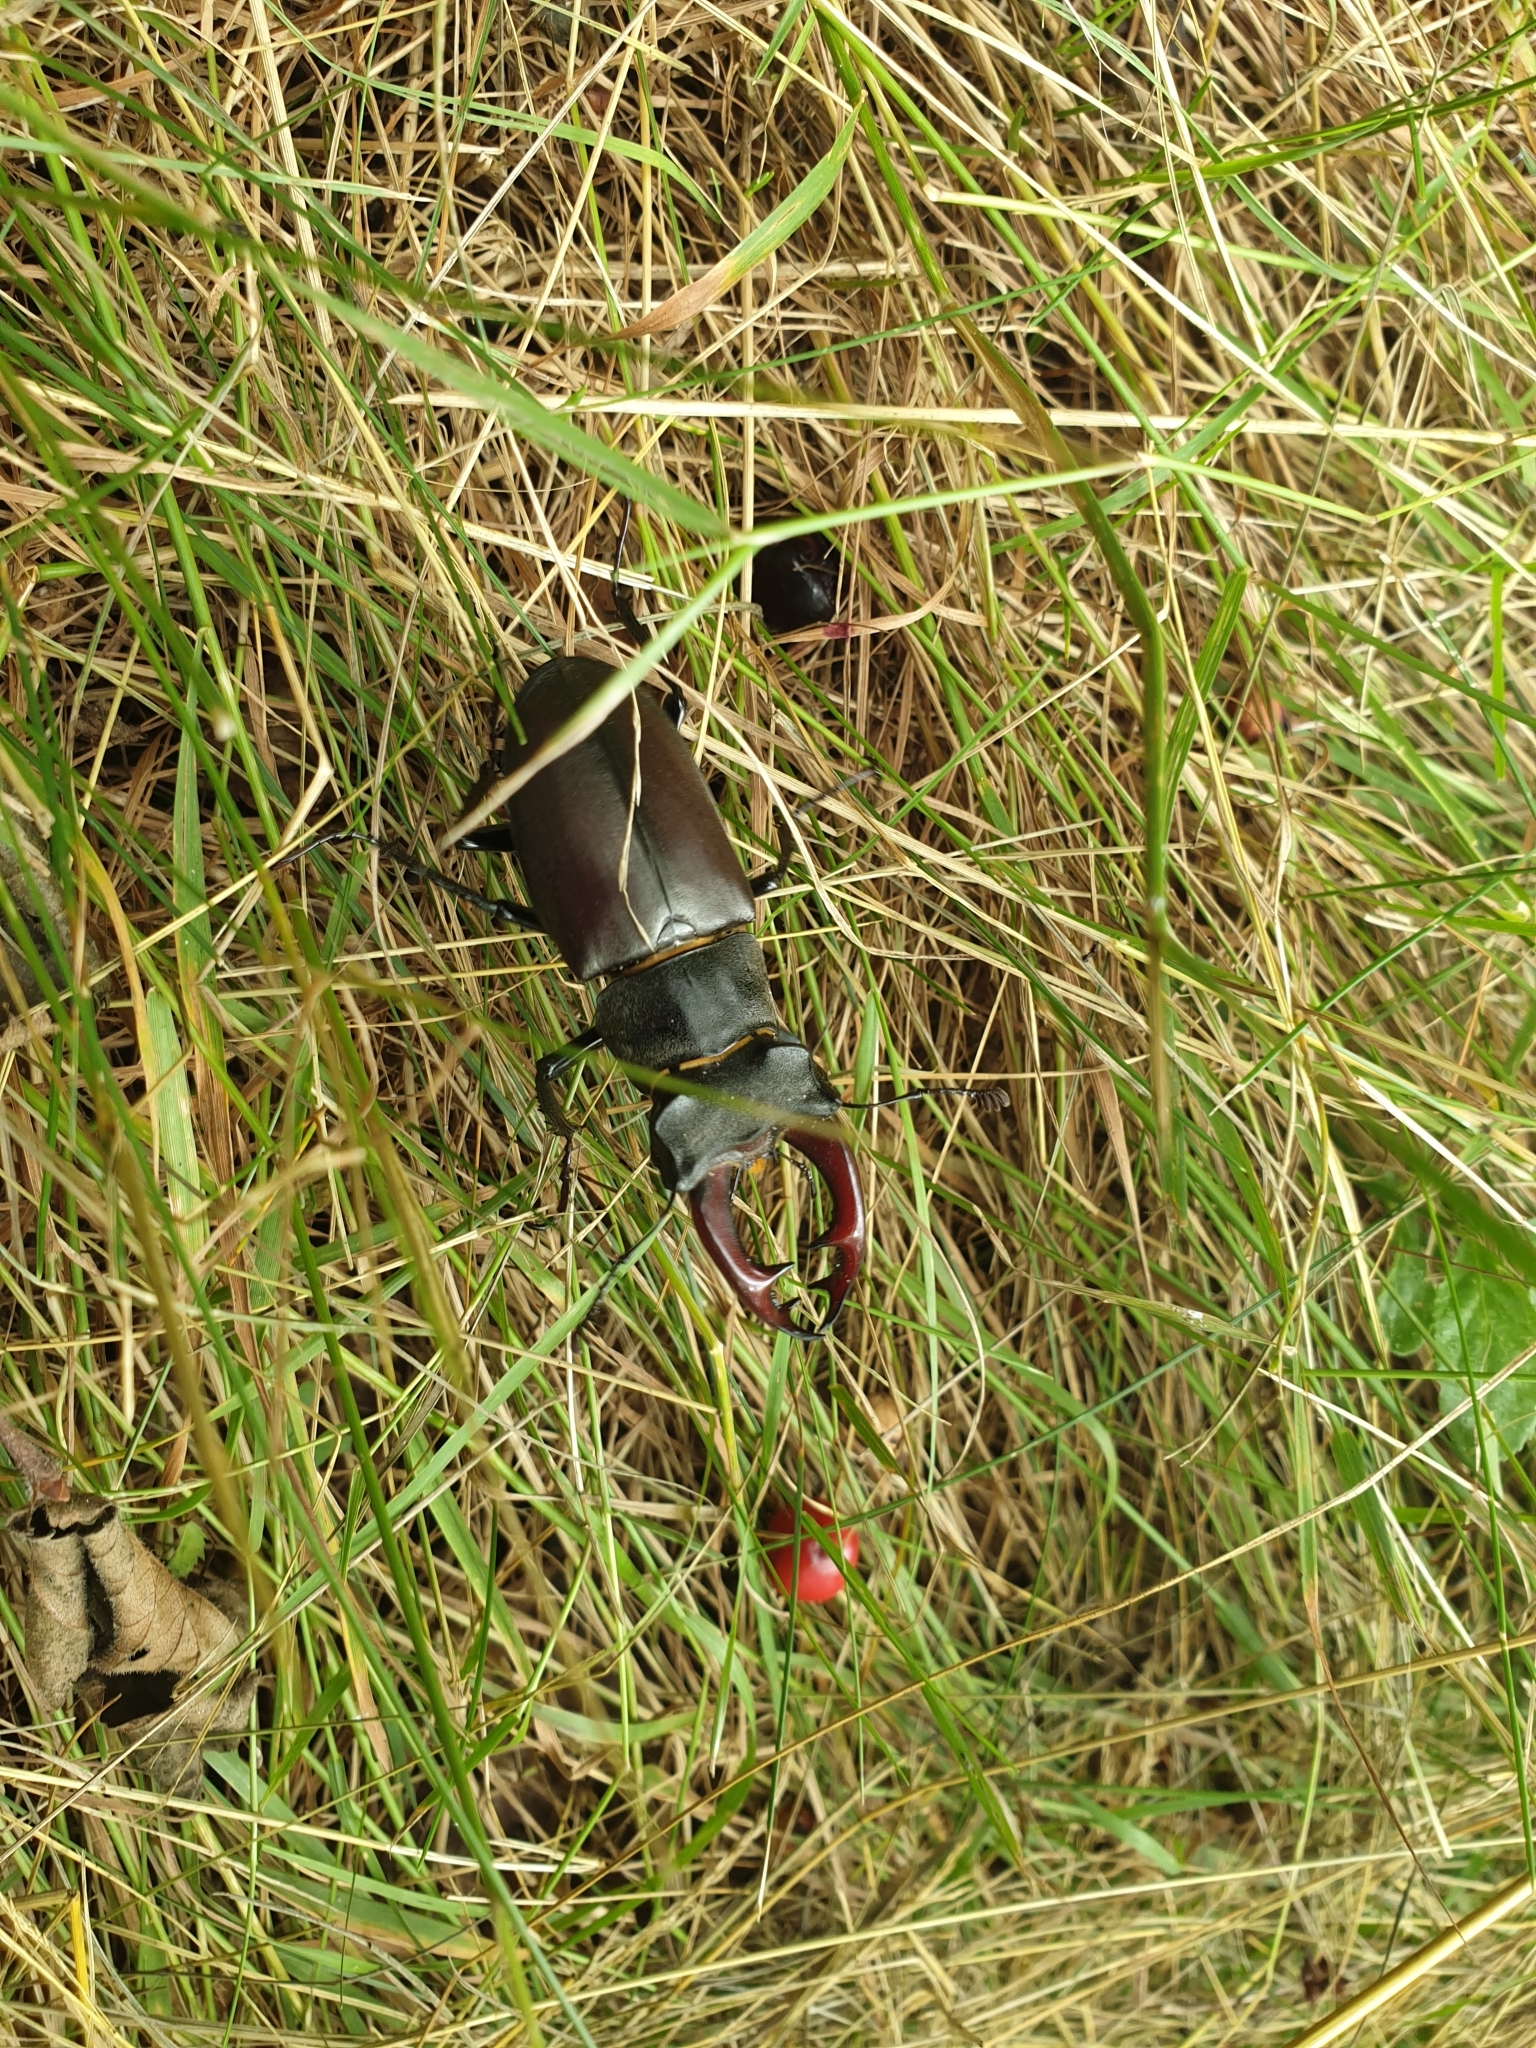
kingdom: Animalia
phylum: Arthropoda
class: Insecta
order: Coleoptera
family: Lucanidae
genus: Lucanus
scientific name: Lucanus cervus
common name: Stag beetle
